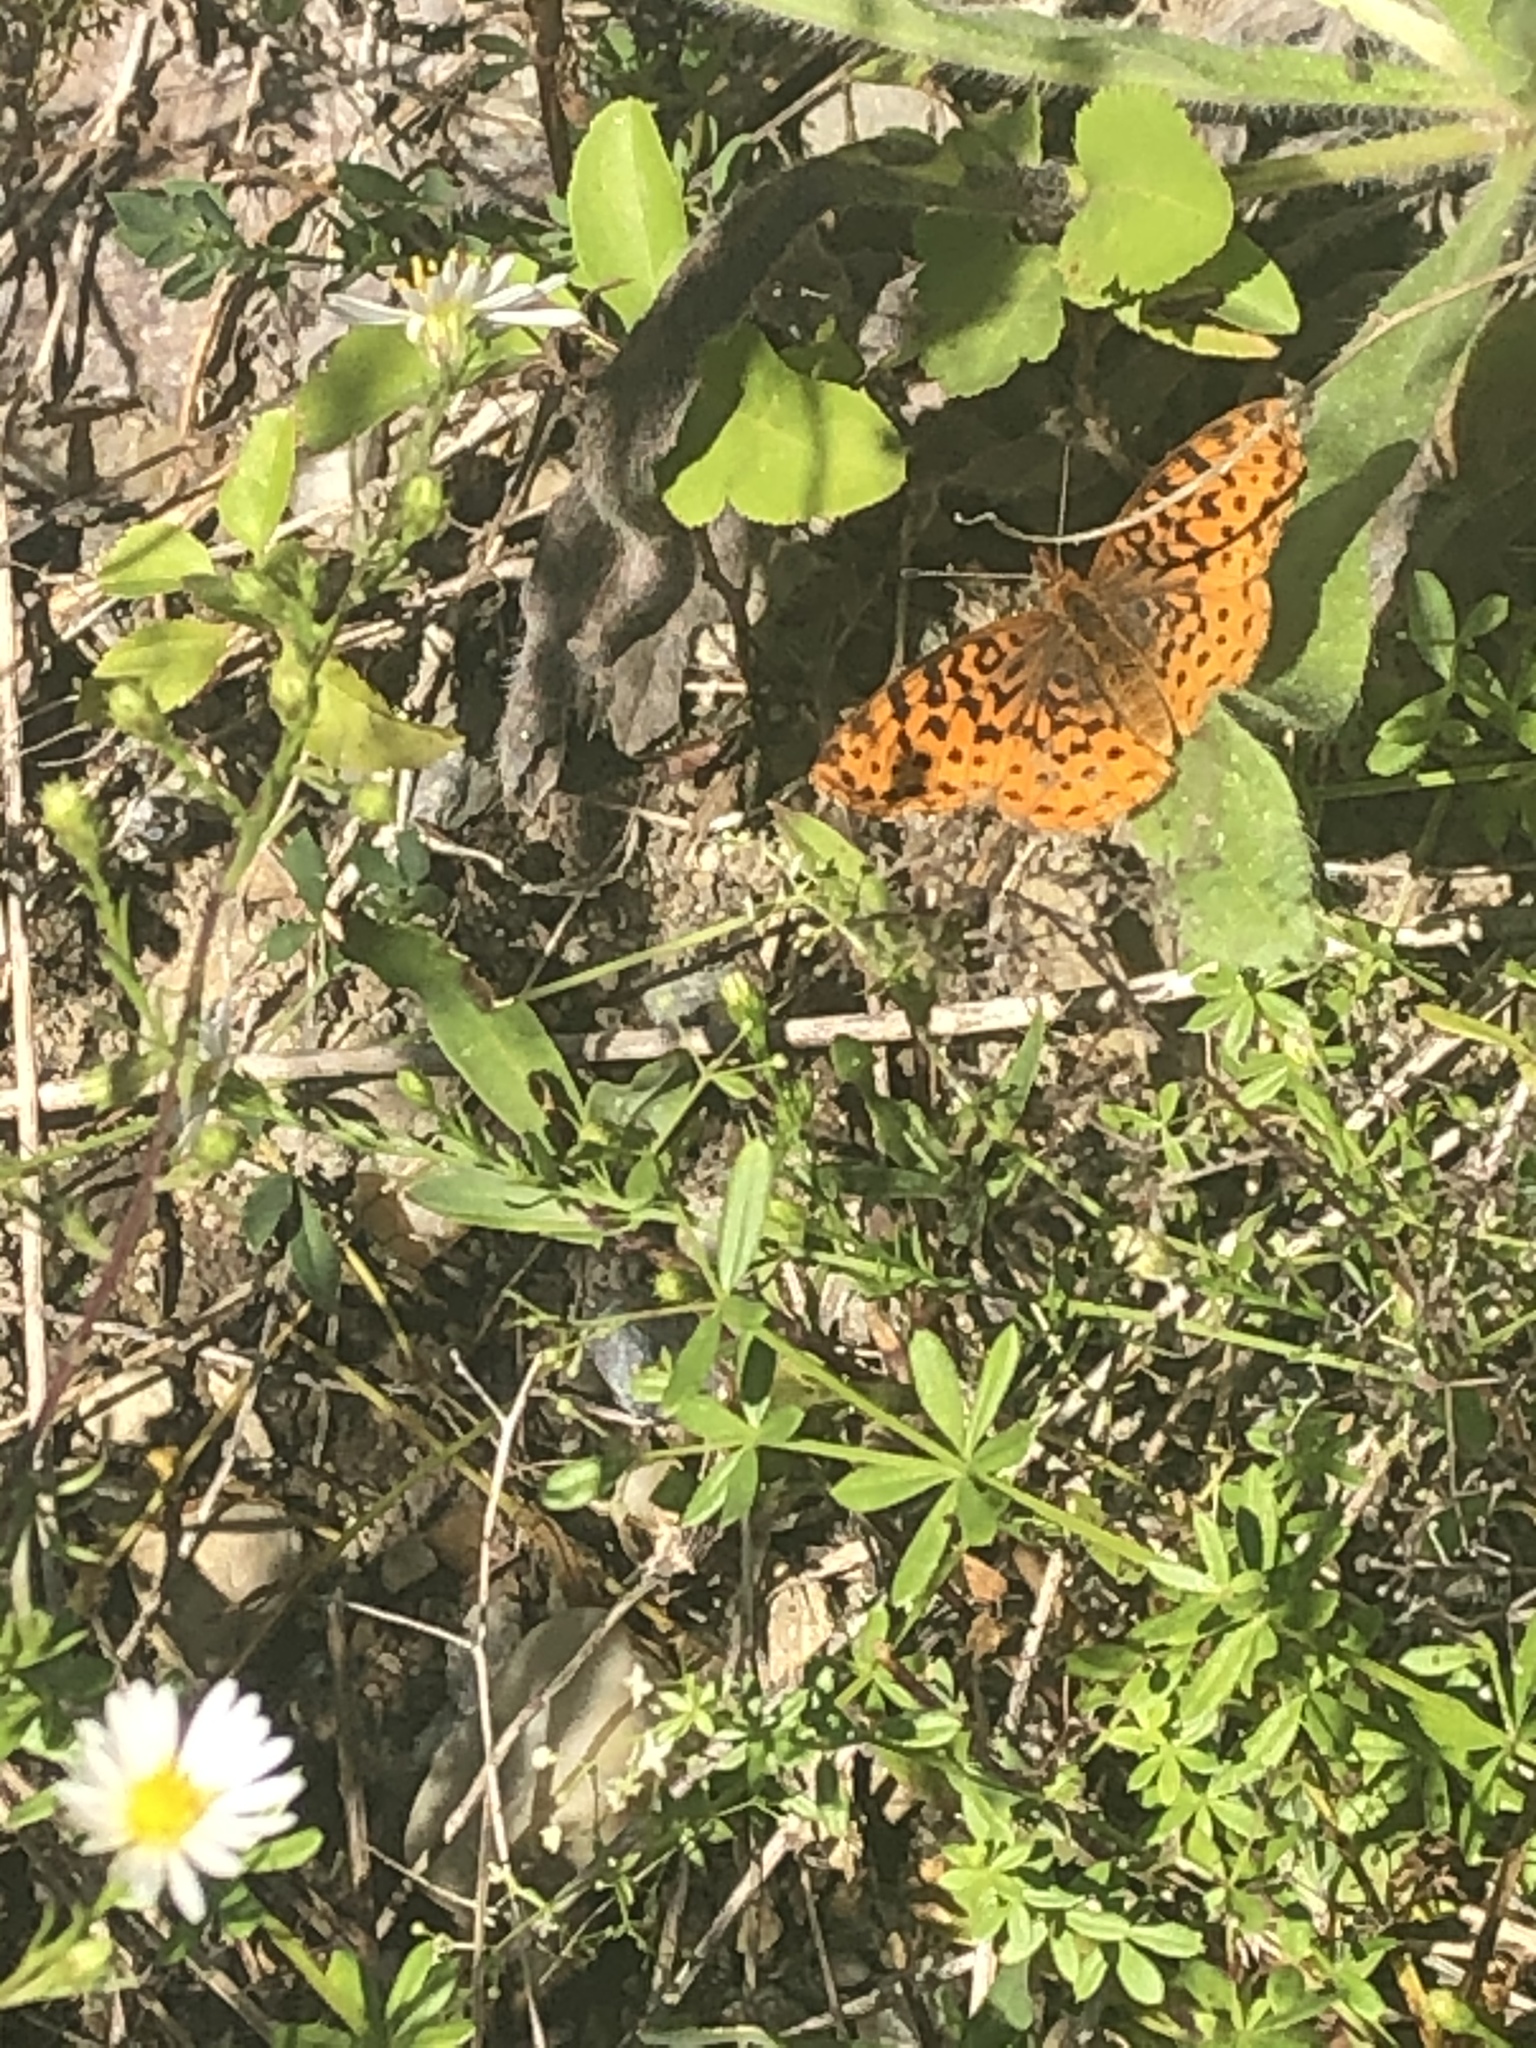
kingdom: Animalia
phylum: Arthropoda
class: Insecta
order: Lepidoptera
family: Nymphalidae
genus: Clossiana
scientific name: Clossiana toddi
